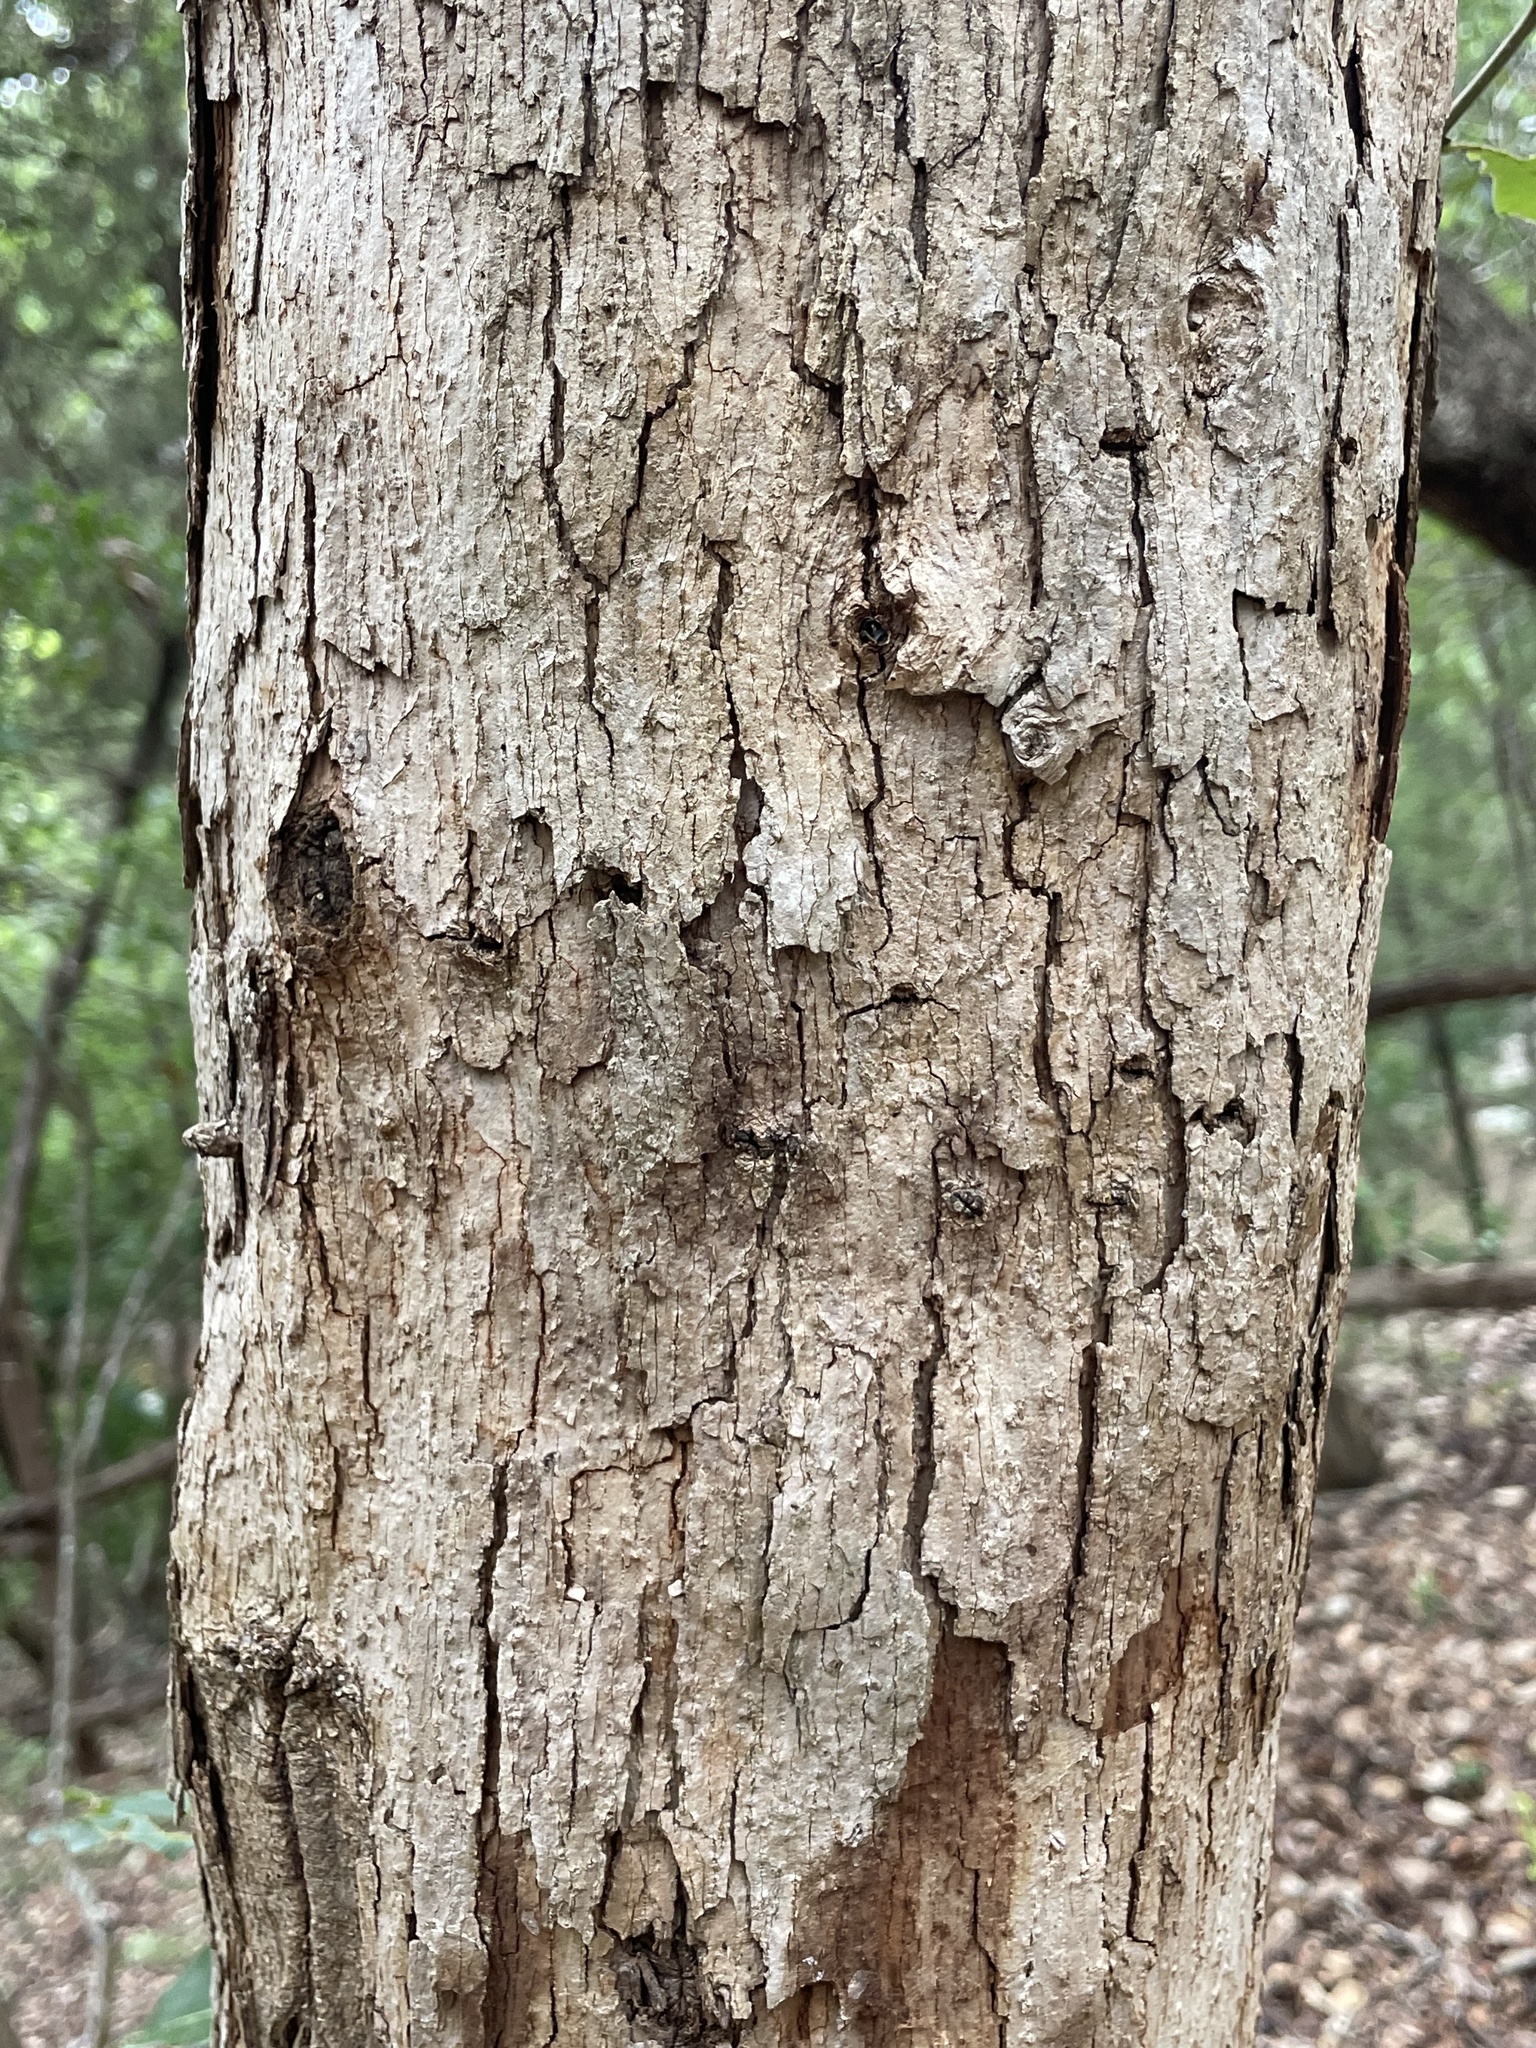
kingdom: Plantae
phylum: Tracheophyta
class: Magnoliopsida
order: Fagales
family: Fagaceae
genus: Quercus
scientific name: Quercus sinuata
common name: Durand oak
